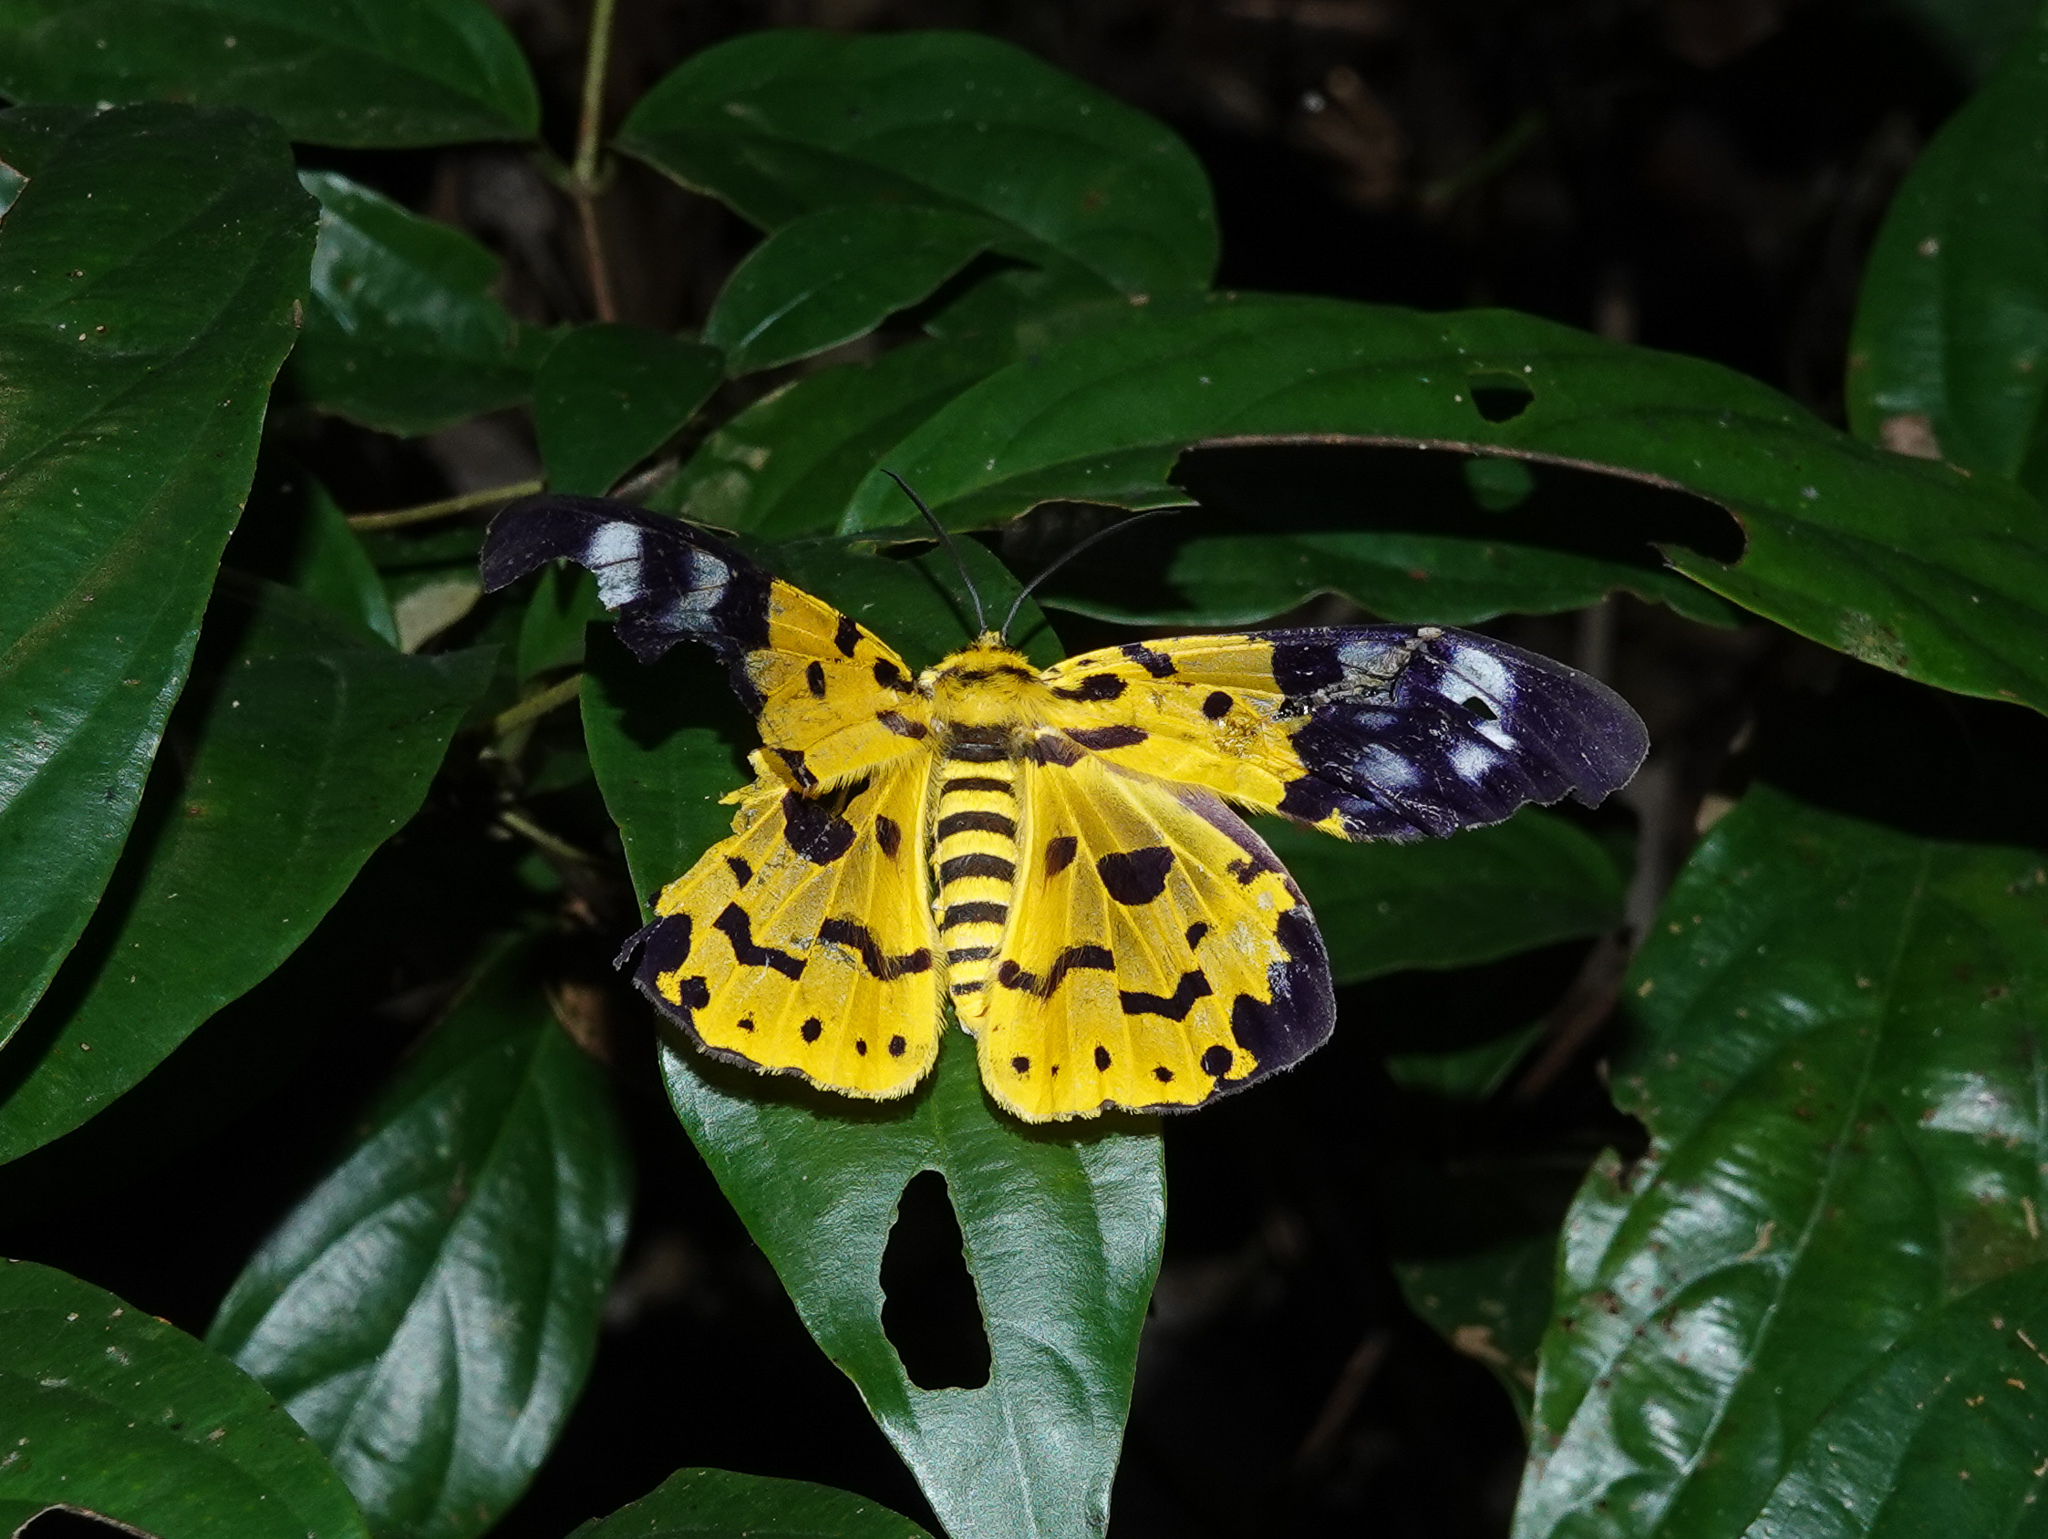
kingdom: Animalia
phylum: Arthropoda
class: Insecta
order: Lepidoptera
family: Geometridae
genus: Dysphania
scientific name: Dysphania militaris
